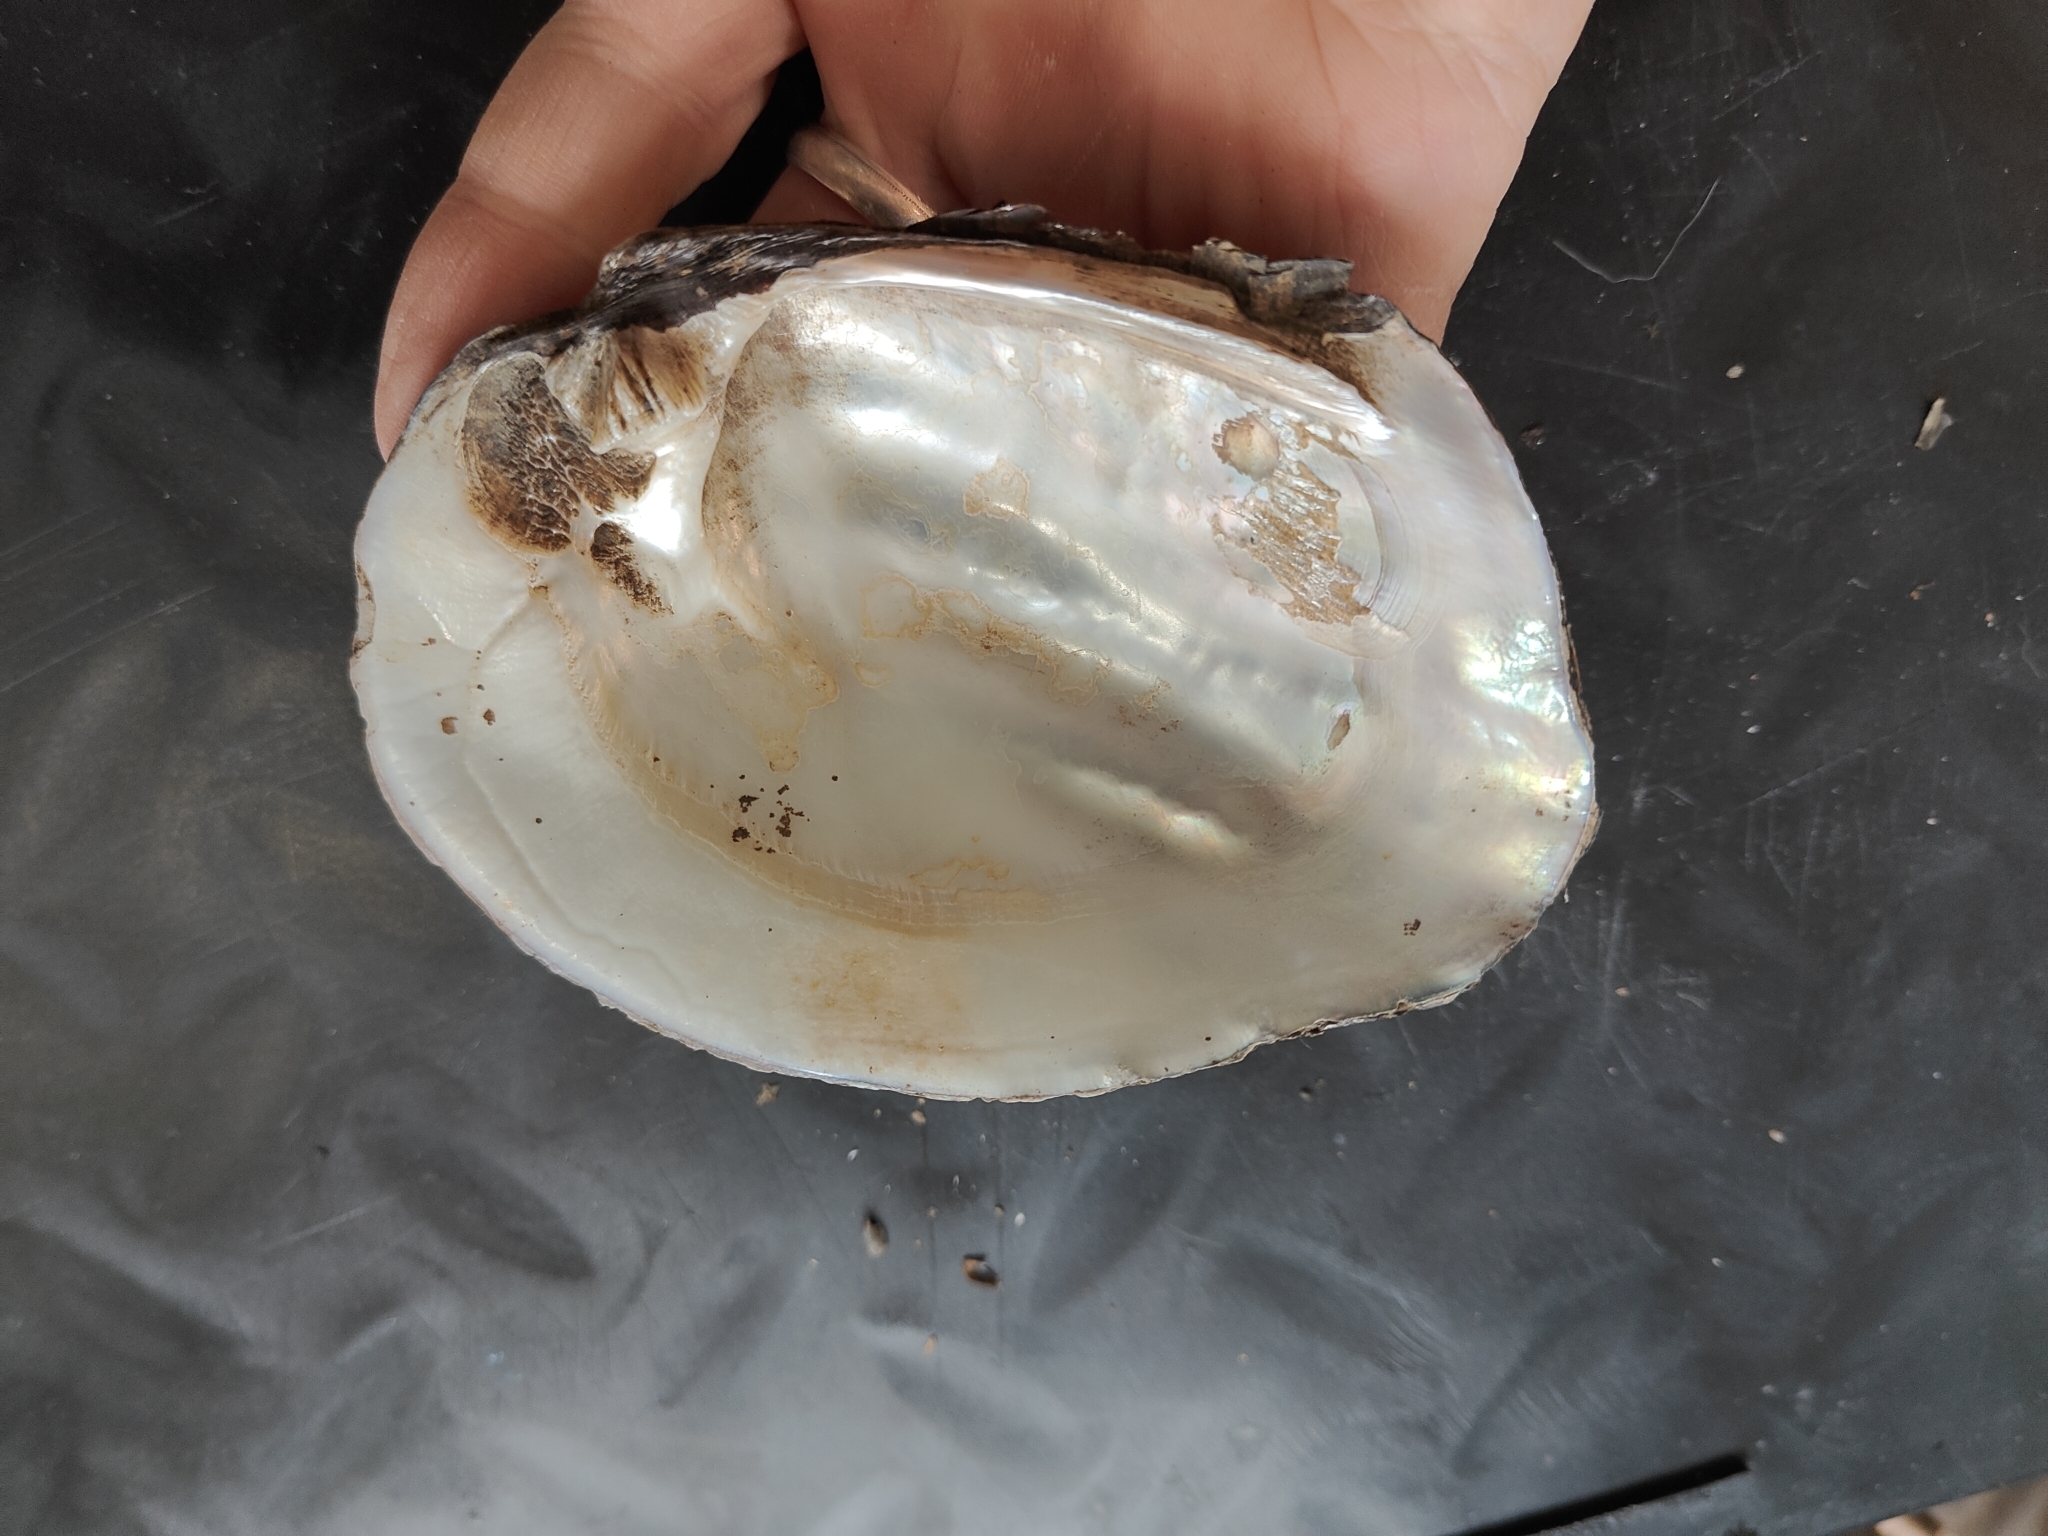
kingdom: Animalia
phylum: Mollusca
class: Bivalvia
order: Unionida
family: Unionidae
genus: Amblema
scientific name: Amblema plicata
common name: Threeridge
